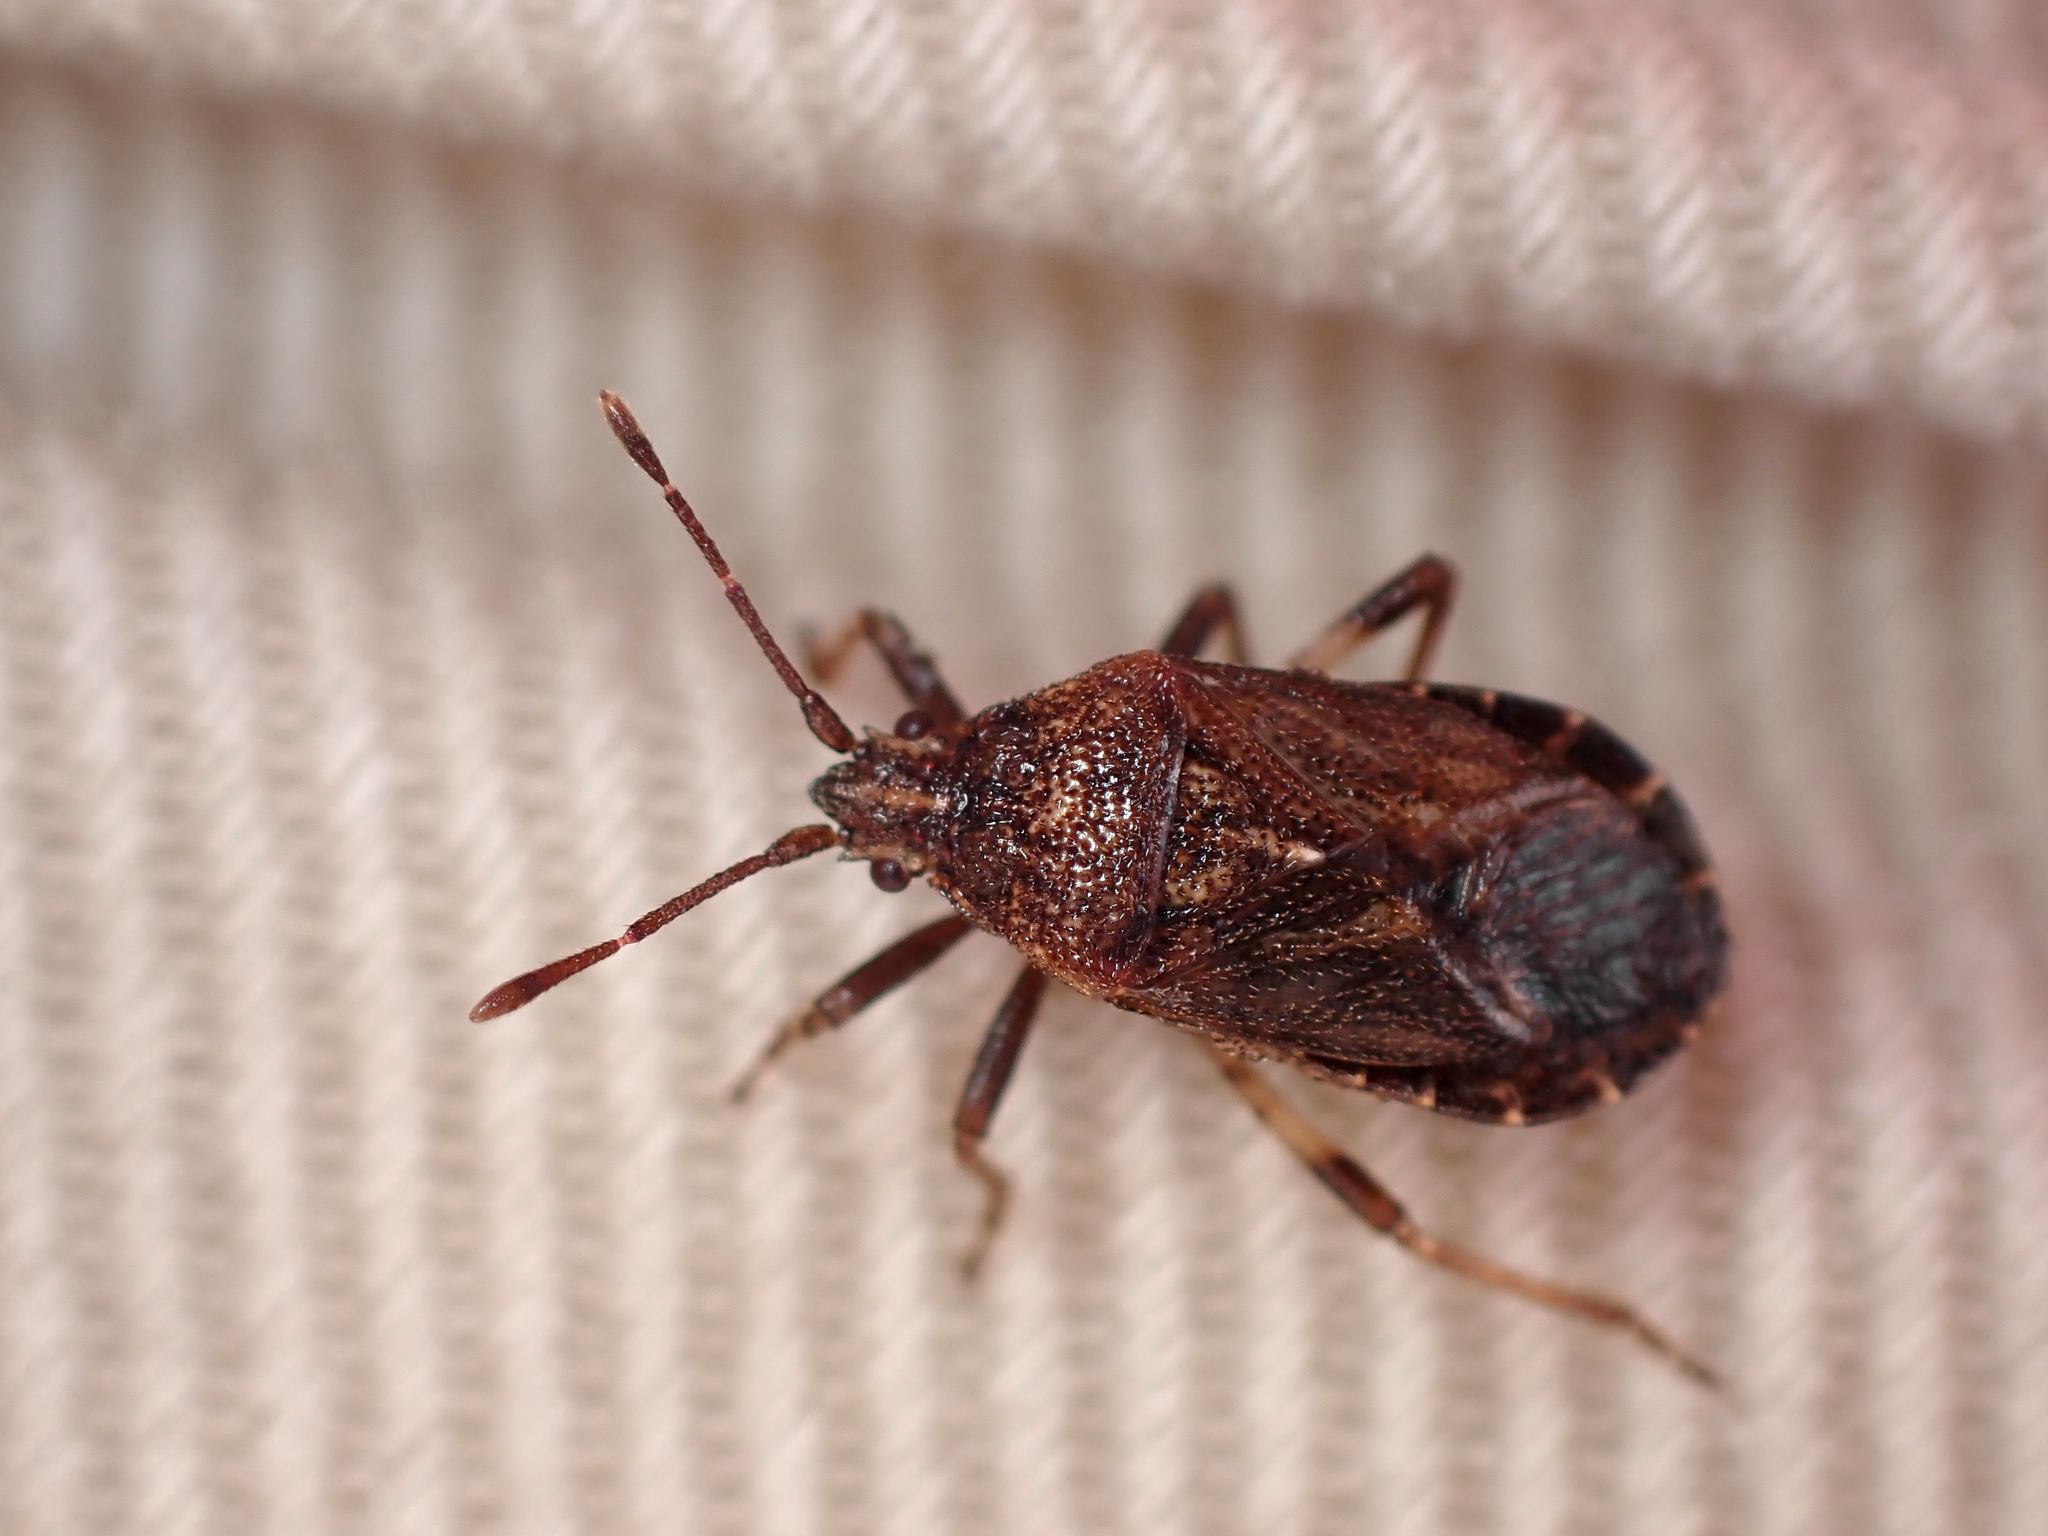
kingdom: Animalia
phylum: Arthropoda
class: Insecta
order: Hemiptera
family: Coreidae
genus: Acantholybas
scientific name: Acantholybas brunneus
